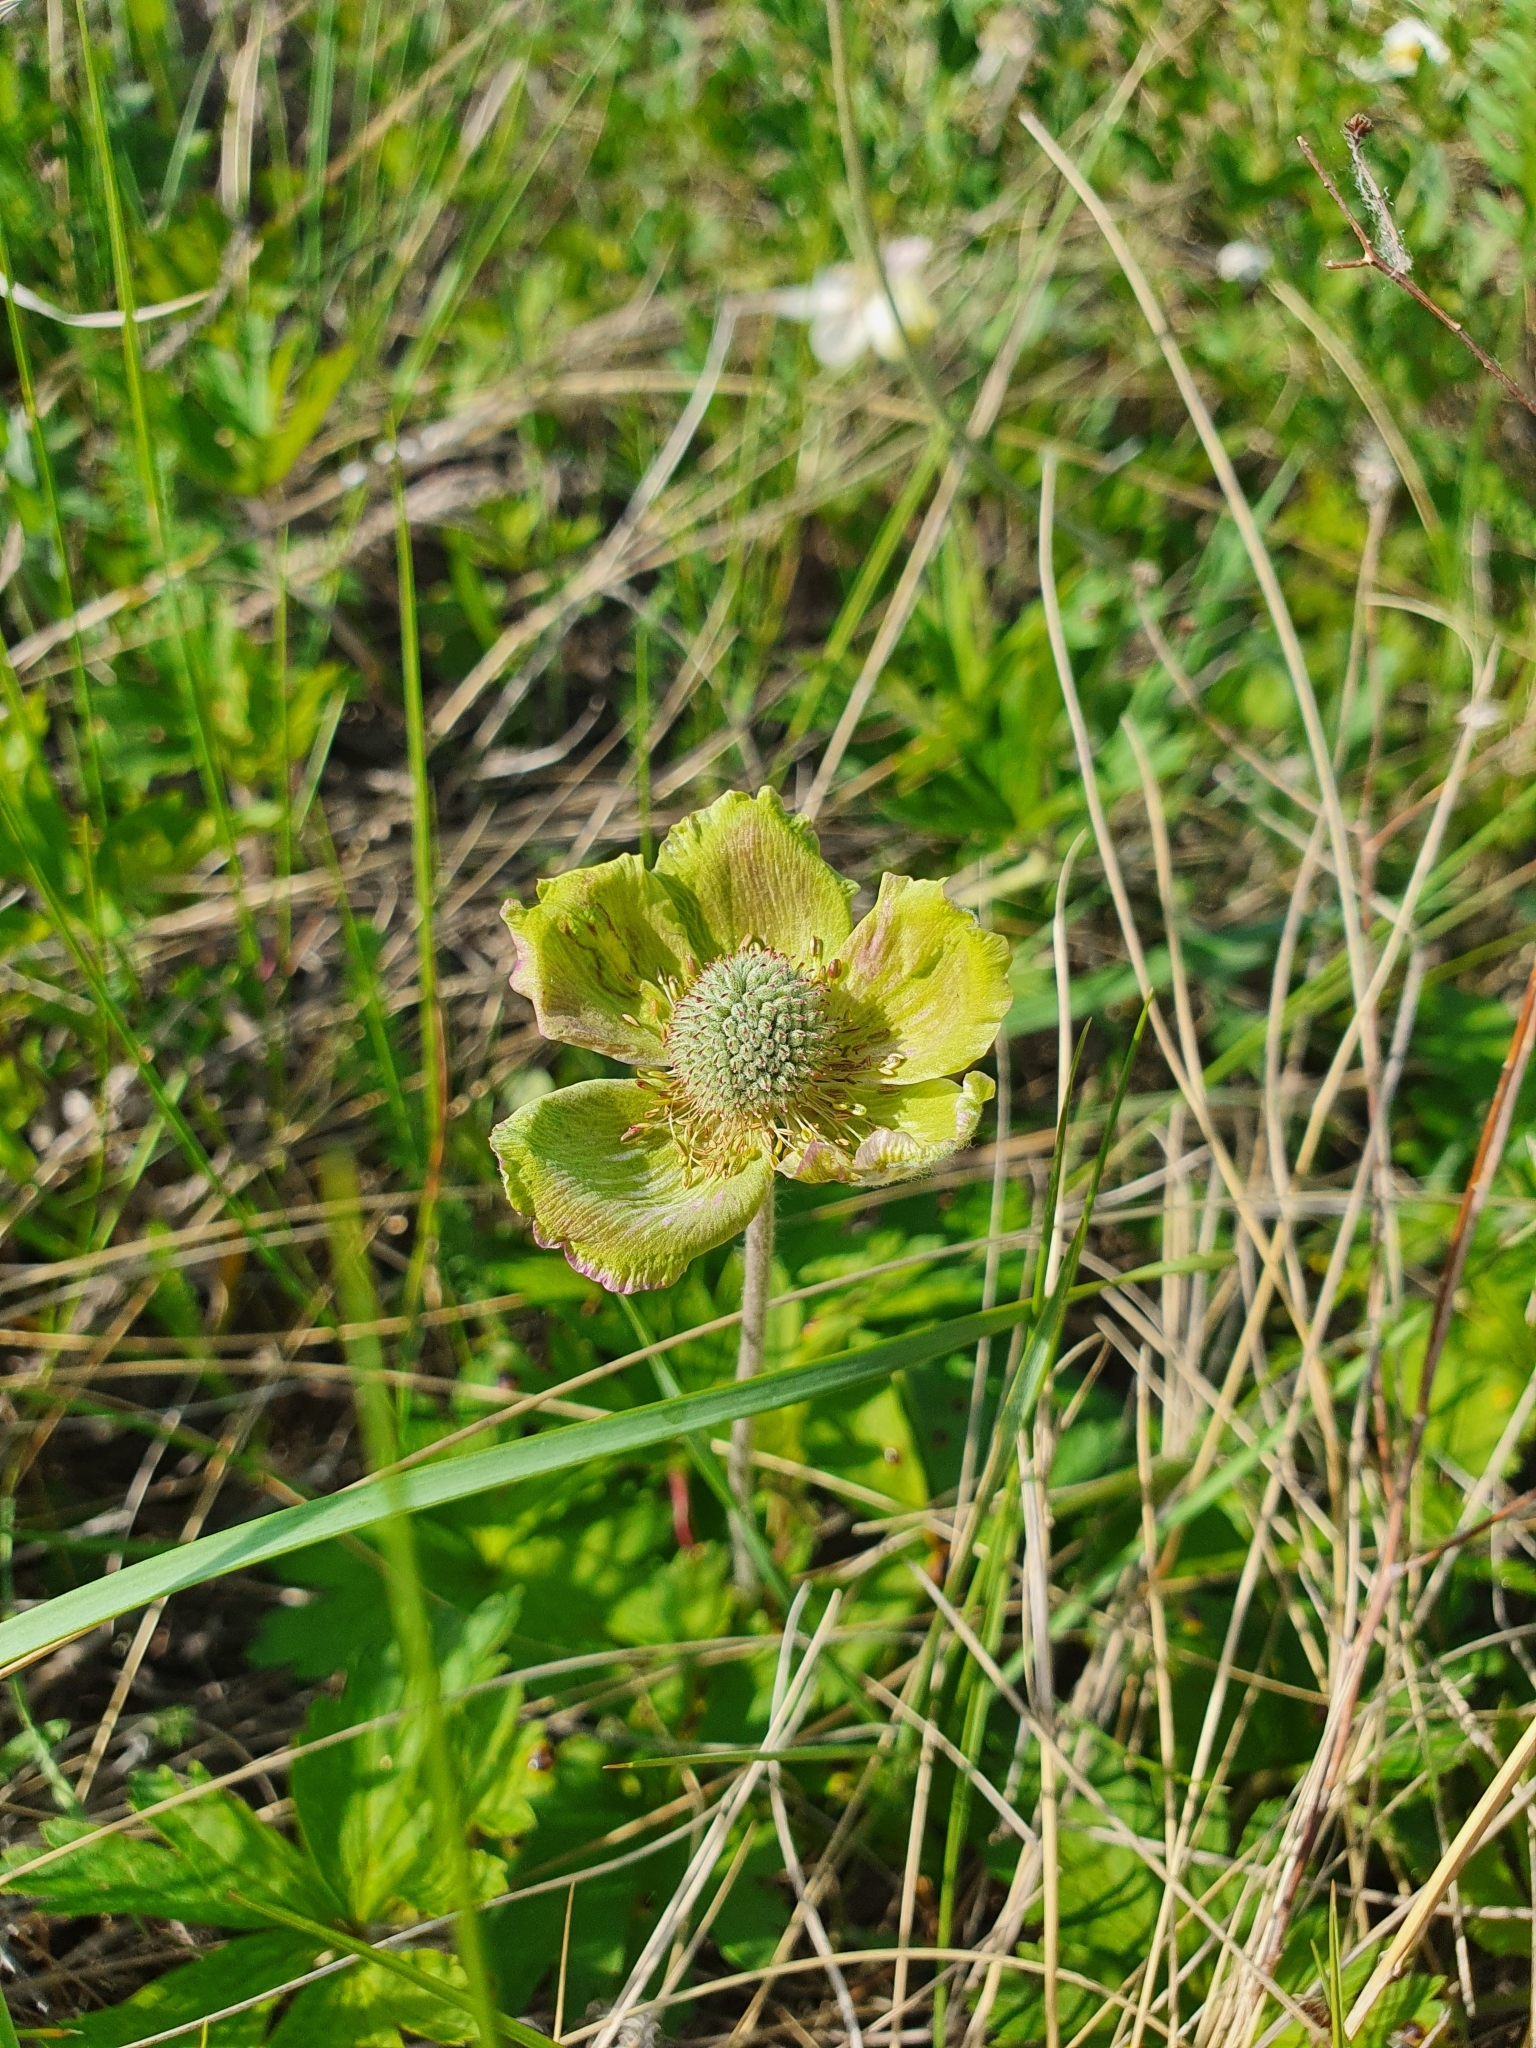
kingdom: Plantae
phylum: Tracheophyta
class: Magnoliopsida
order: Ranunculales
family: Ranunculaceae
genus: Anemone
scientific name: Anemone sylvestris
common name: Snowdrop anemone
